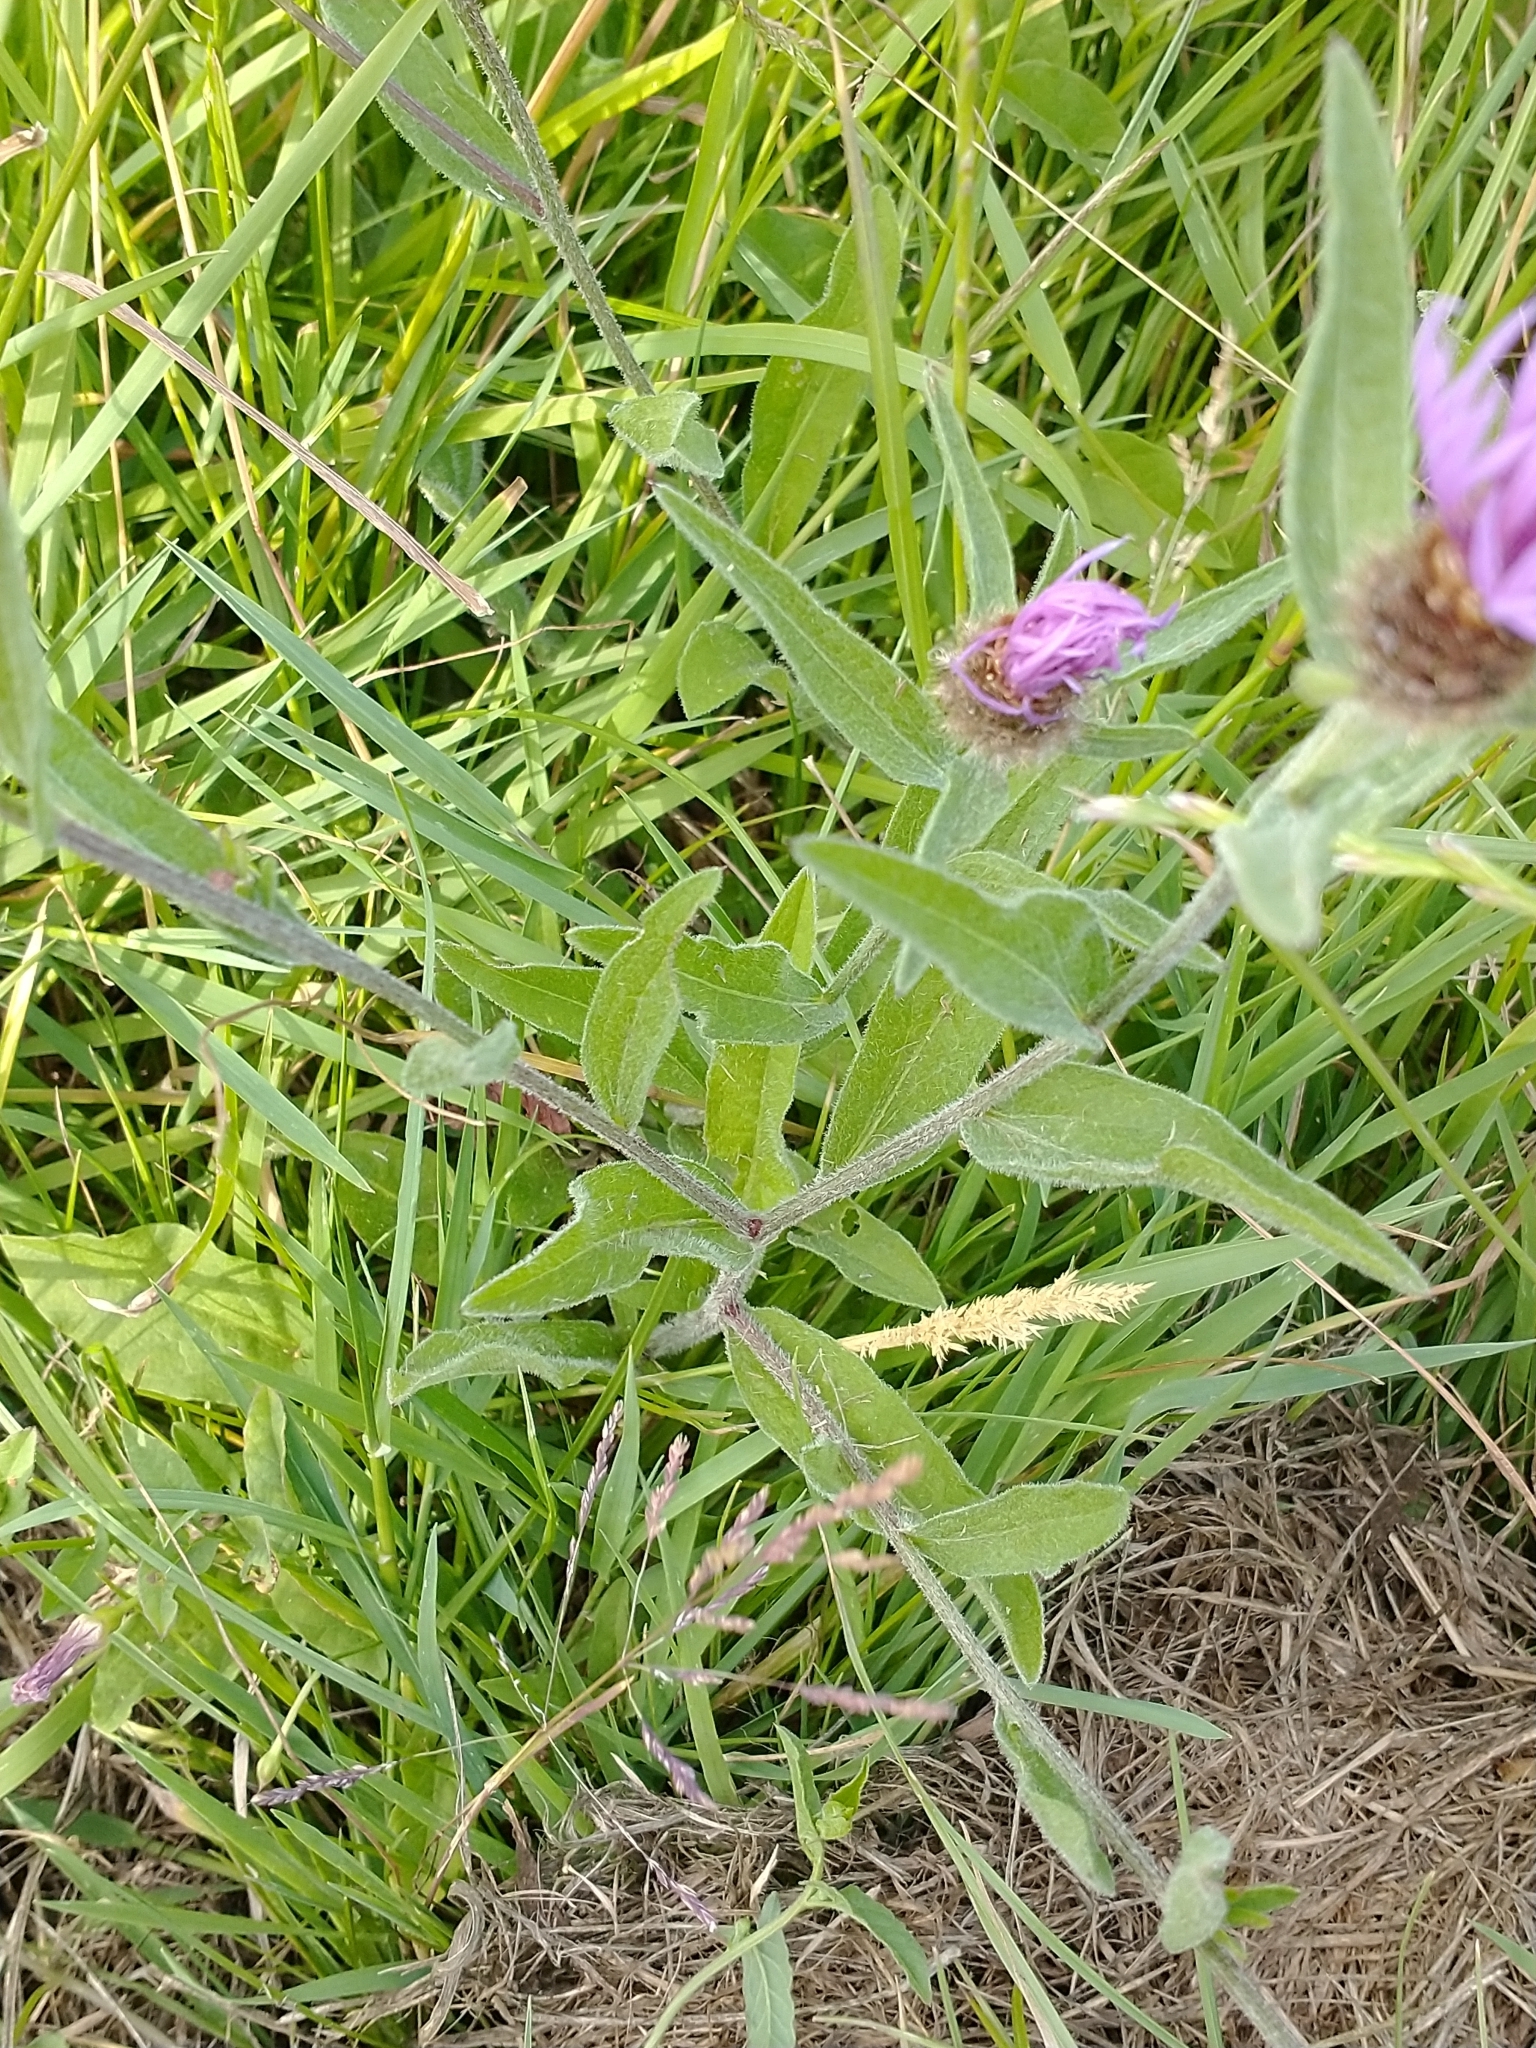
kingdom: Plantae
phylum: Tracheophyta
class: Magnoliopsida
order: Asterales
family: Asteraceae
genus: Centaurea
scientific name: Centaurea nigra
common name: Lesser knapweed
